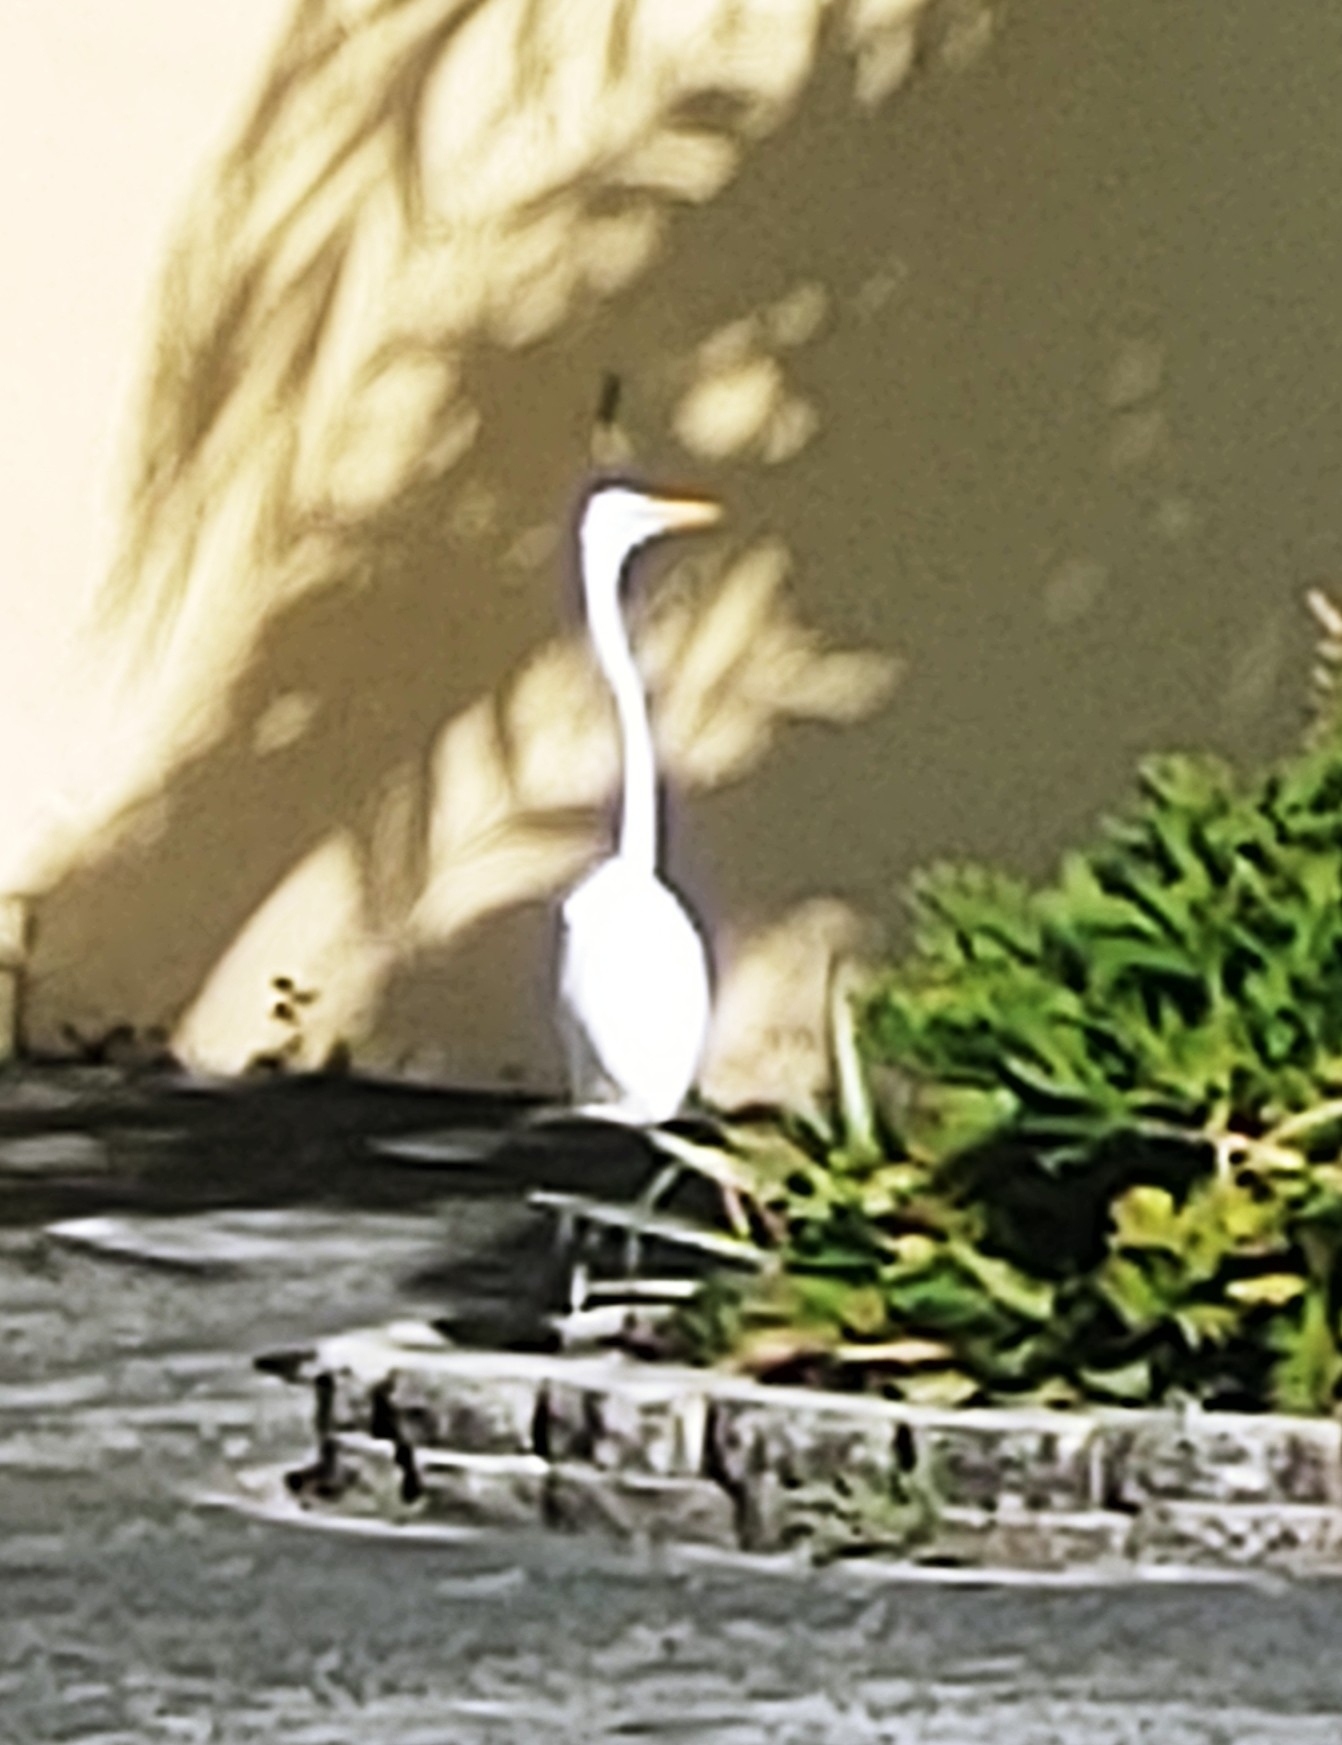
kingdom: Animalia
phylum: Chordata
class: Aves
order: Pelecaniformes
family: Ardeidae
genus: Ardea
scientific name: Ardea alba
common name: Great egret
